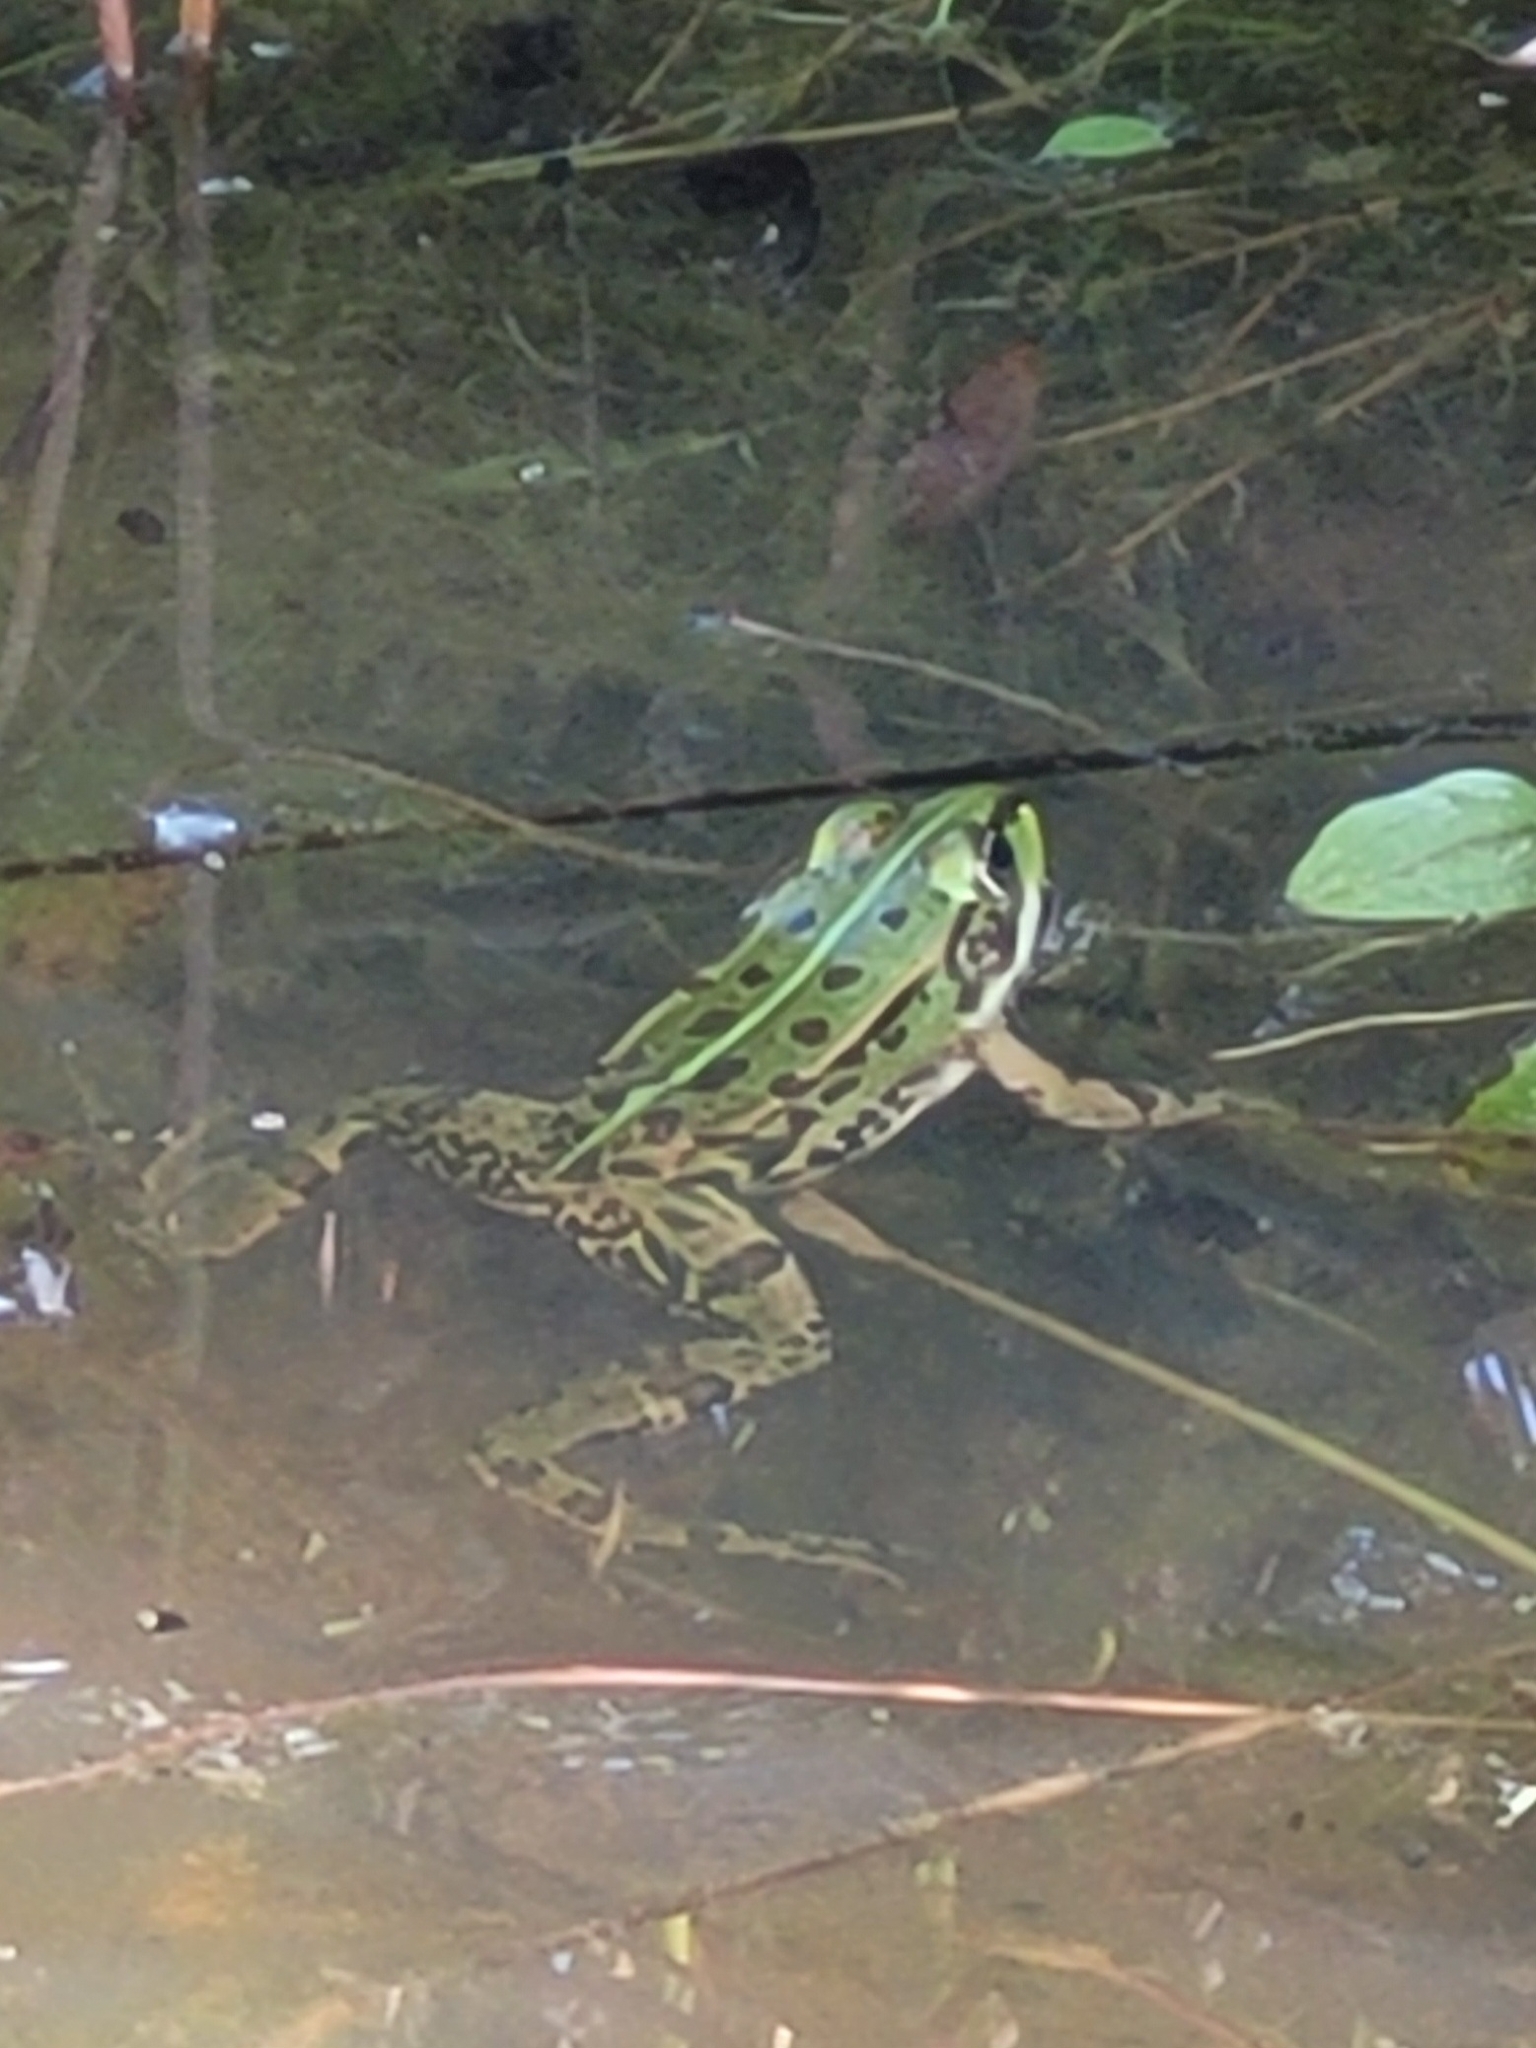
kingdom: Animalia
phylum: Chordata
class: Amphibia
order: Anura
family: Ranidae
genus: Pelophylax
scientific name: Pelophylax
